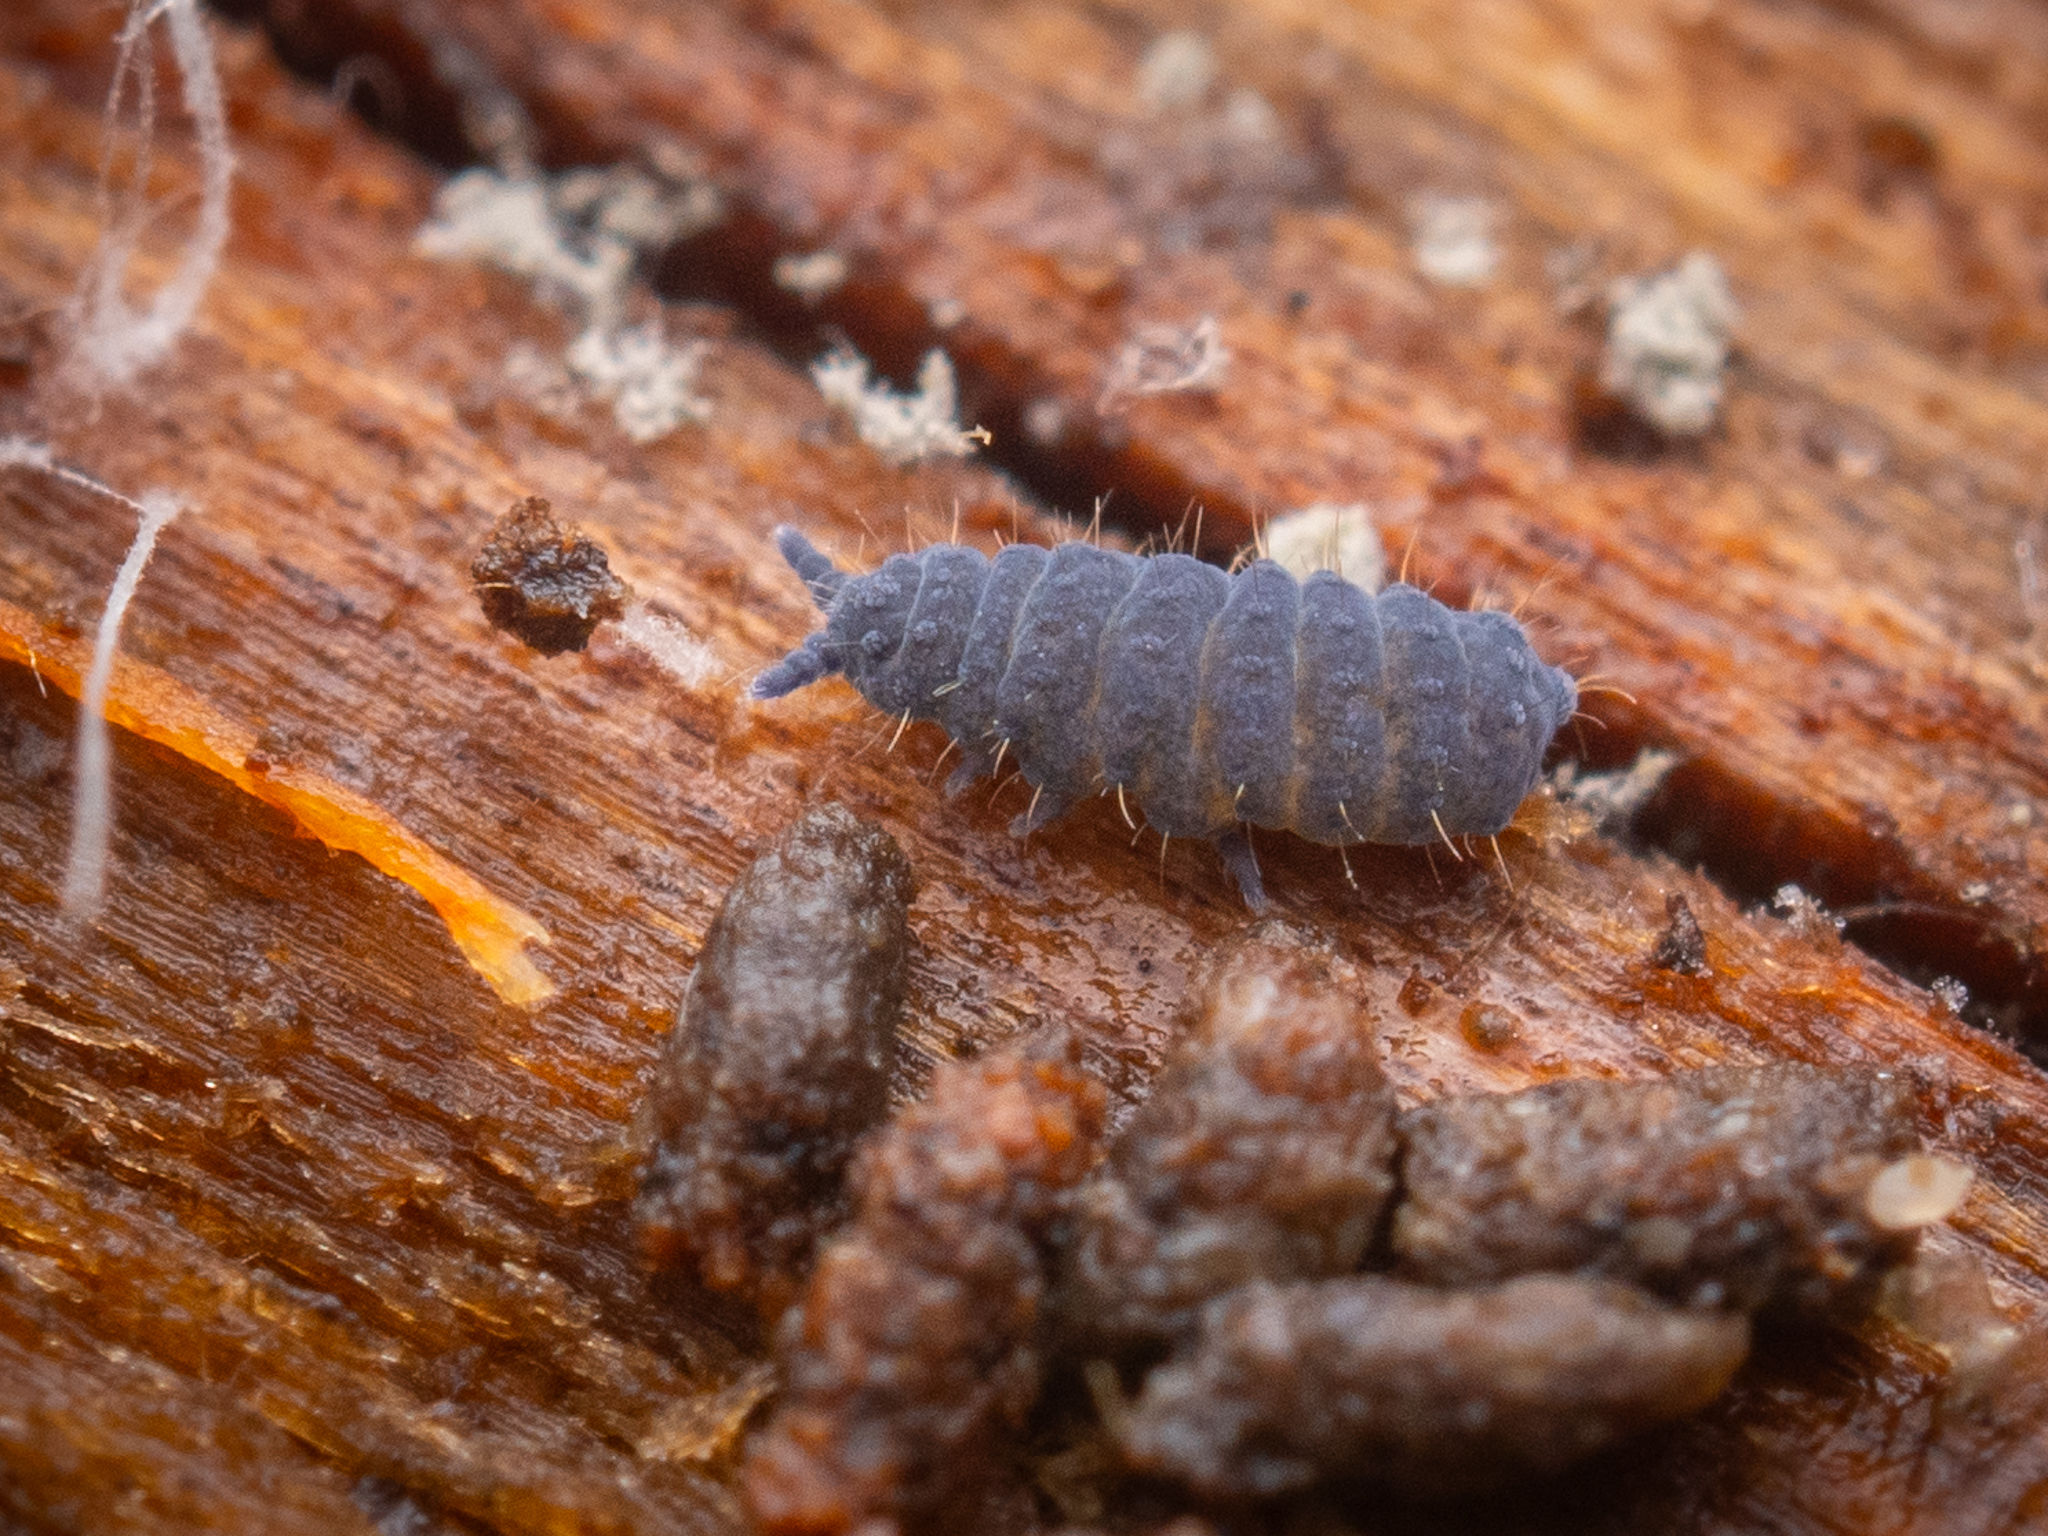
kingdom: Animalia
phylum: Arthropoda
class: Collembola
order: Poduromorpha
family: Neanuridae
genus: Neanura
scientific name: Neanura muscorum
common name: Springtail
